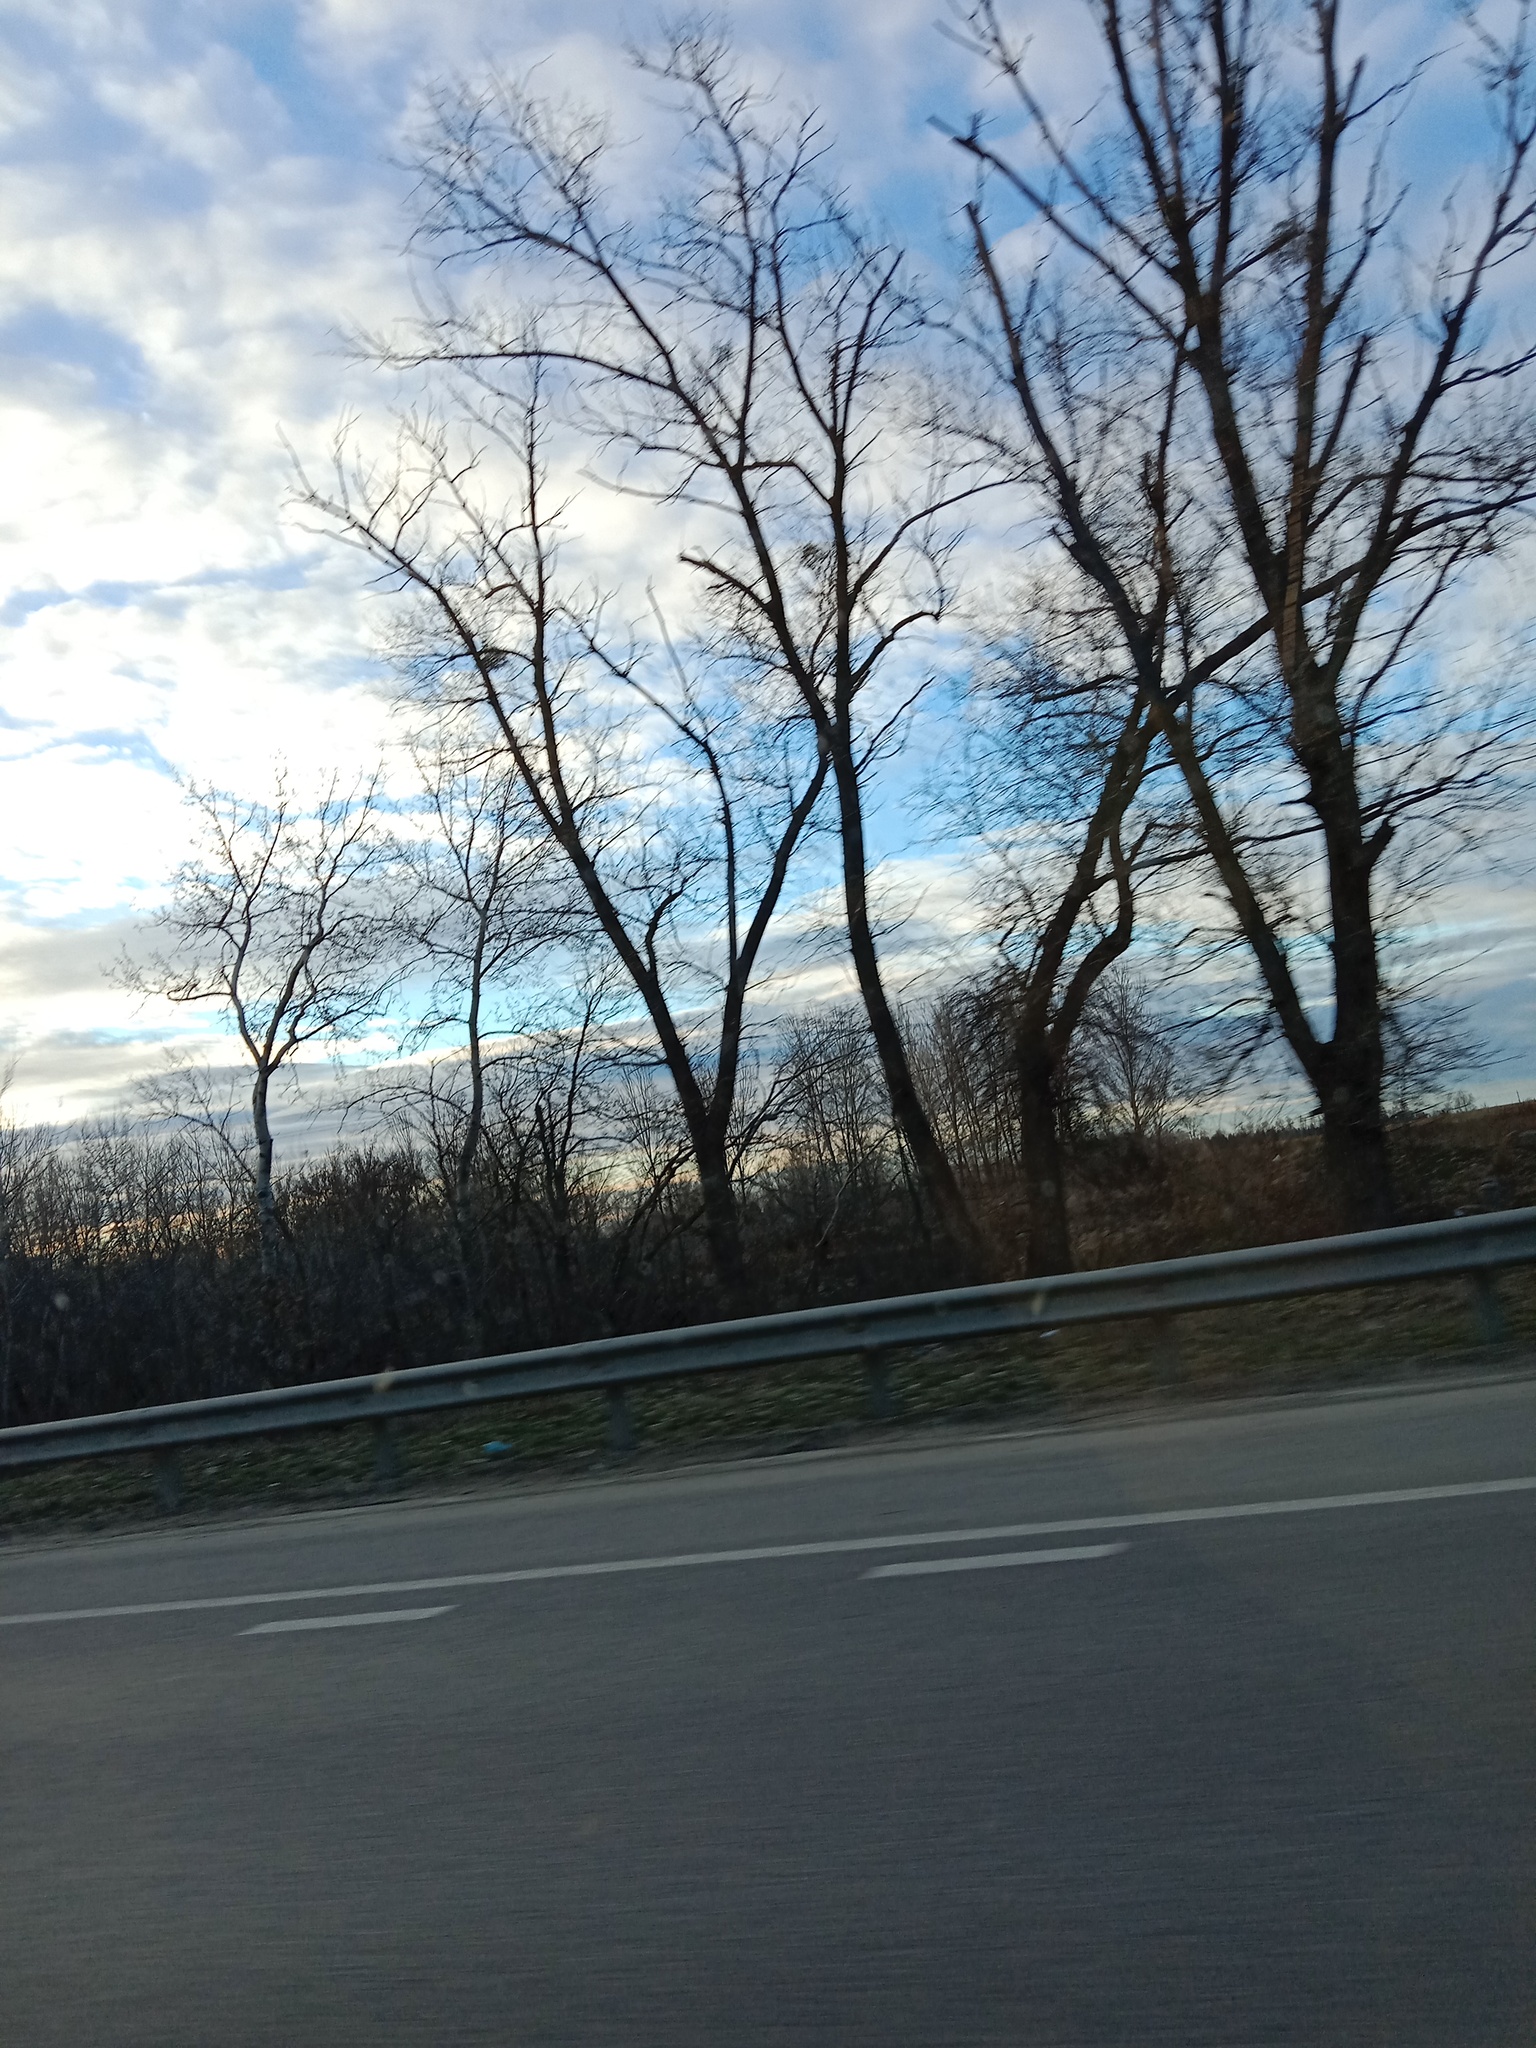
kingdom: Plantae
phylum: Tracheophyta
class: Magnoliopsida
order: Santalales
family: Viscaceae
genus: Viscum
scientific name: Viscum album
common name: Mistletoe
